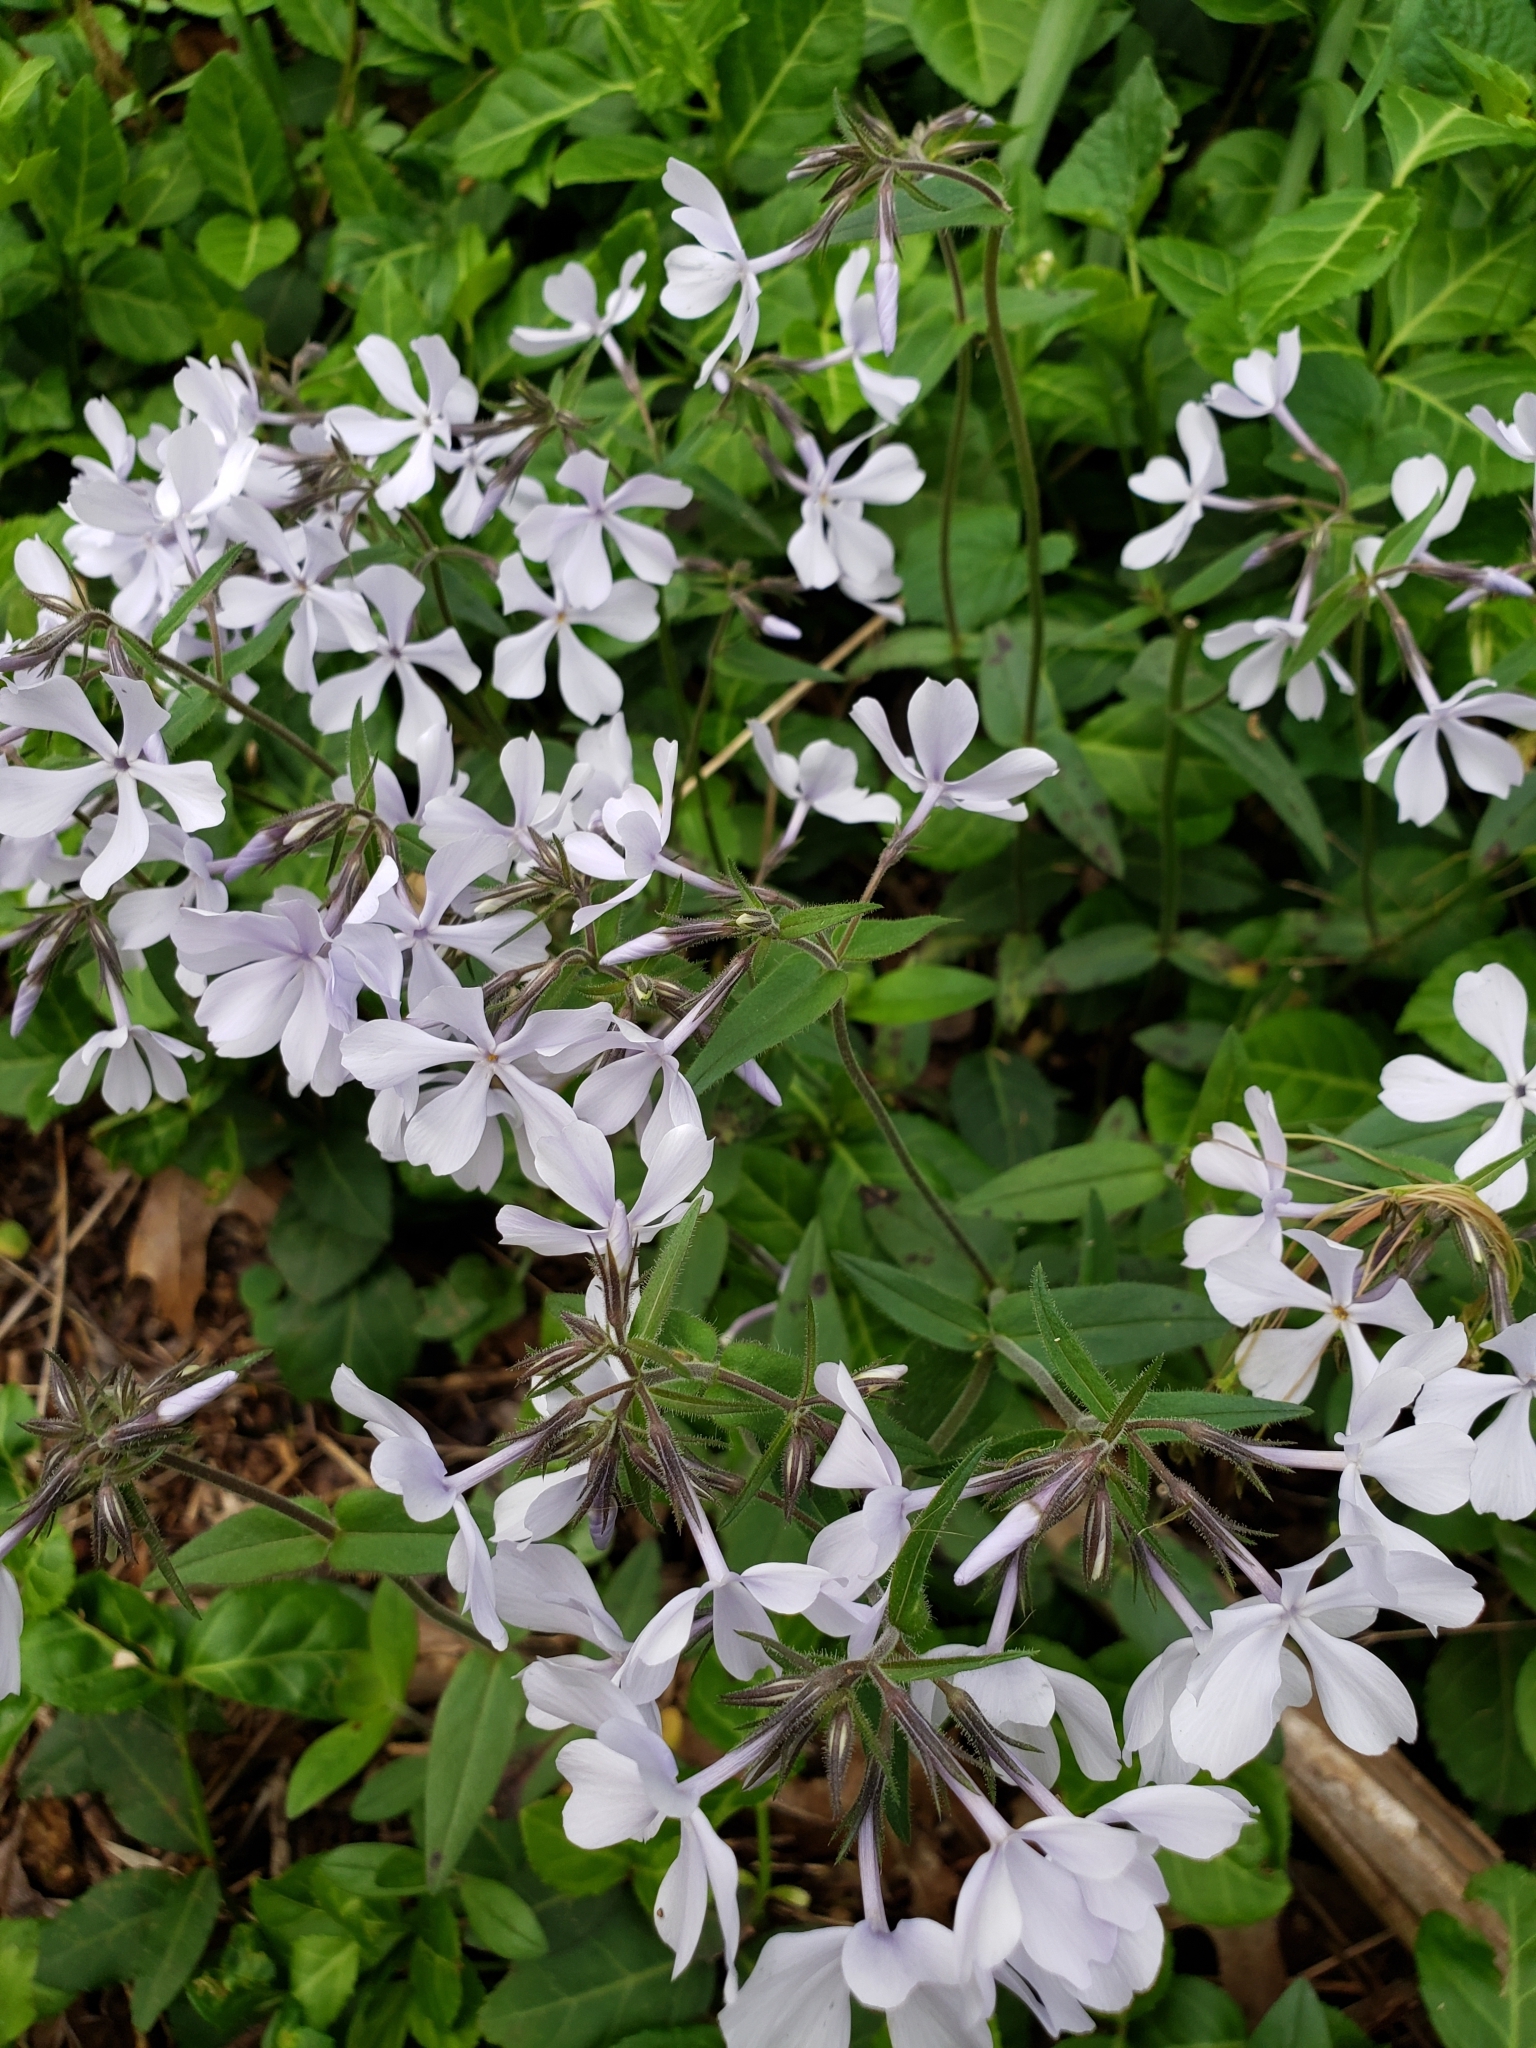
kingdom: Plantae
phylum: Tracheophyta
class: Magnoliopsida
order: Ericales
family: Polemoniaceae
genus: Phlox
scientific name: Phlox divaricata
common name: Blue phlox
